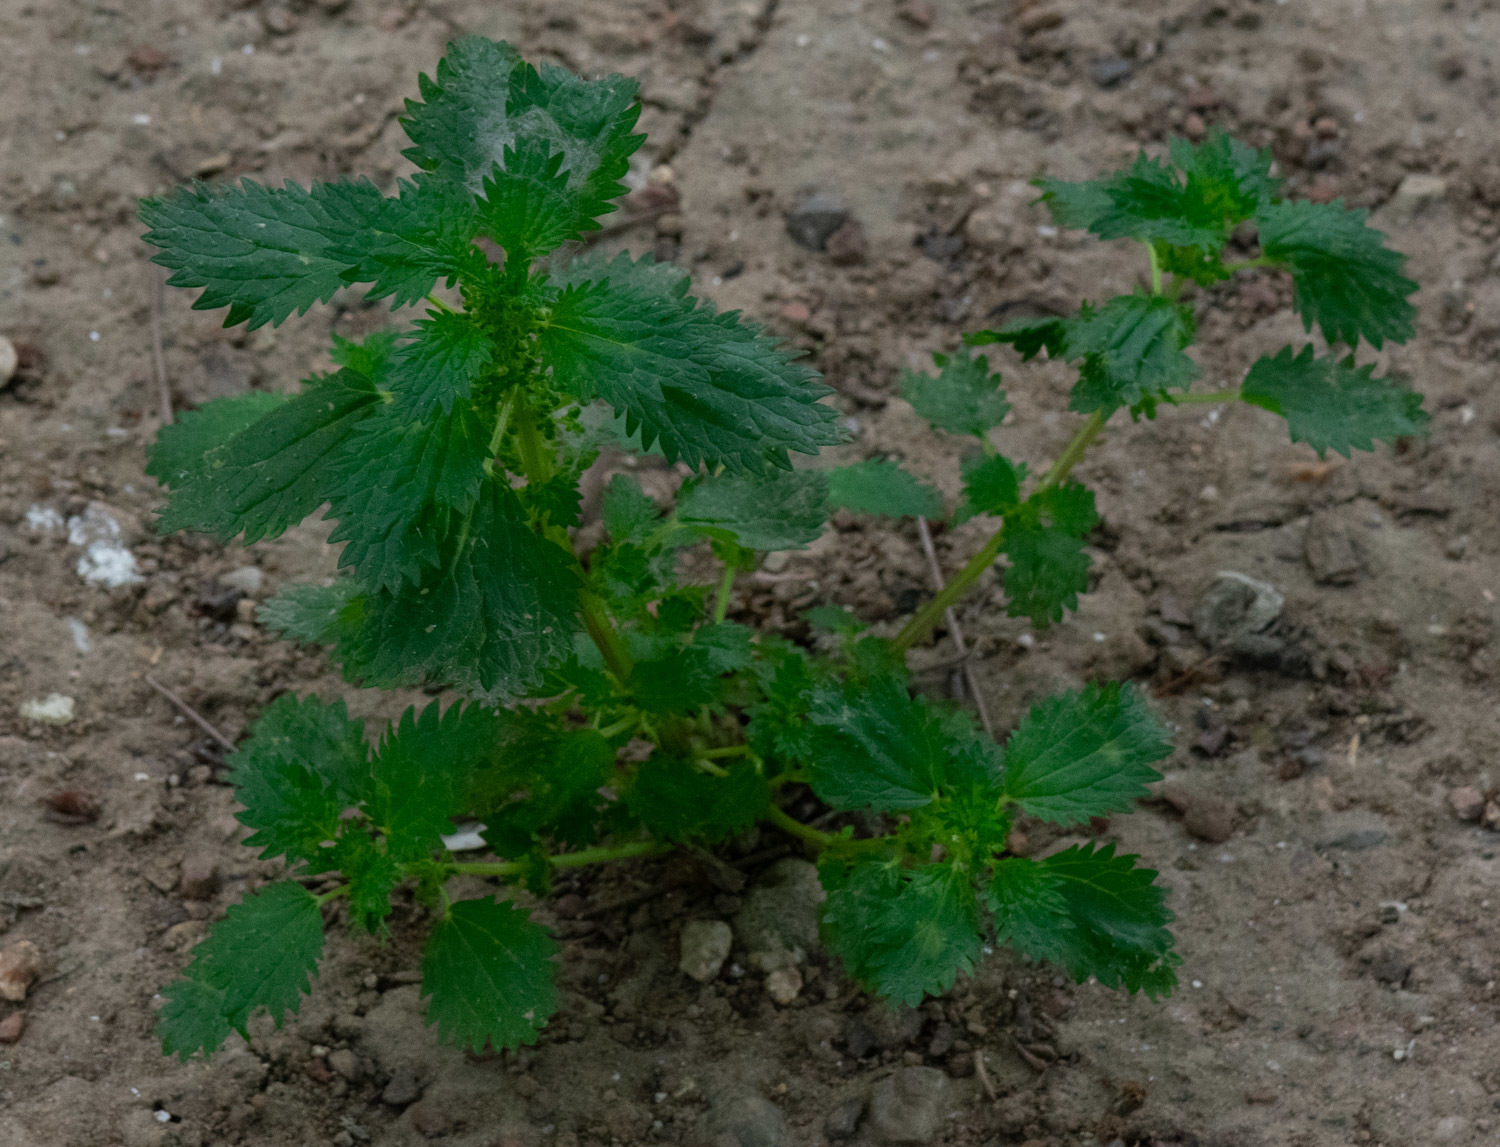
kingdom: Plantae
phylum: Tracheophyta
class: Magnoliopsida
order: Rosales
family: Urticaceae
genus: Urtica
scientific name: Urtica urens
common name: Dwarf nettle
